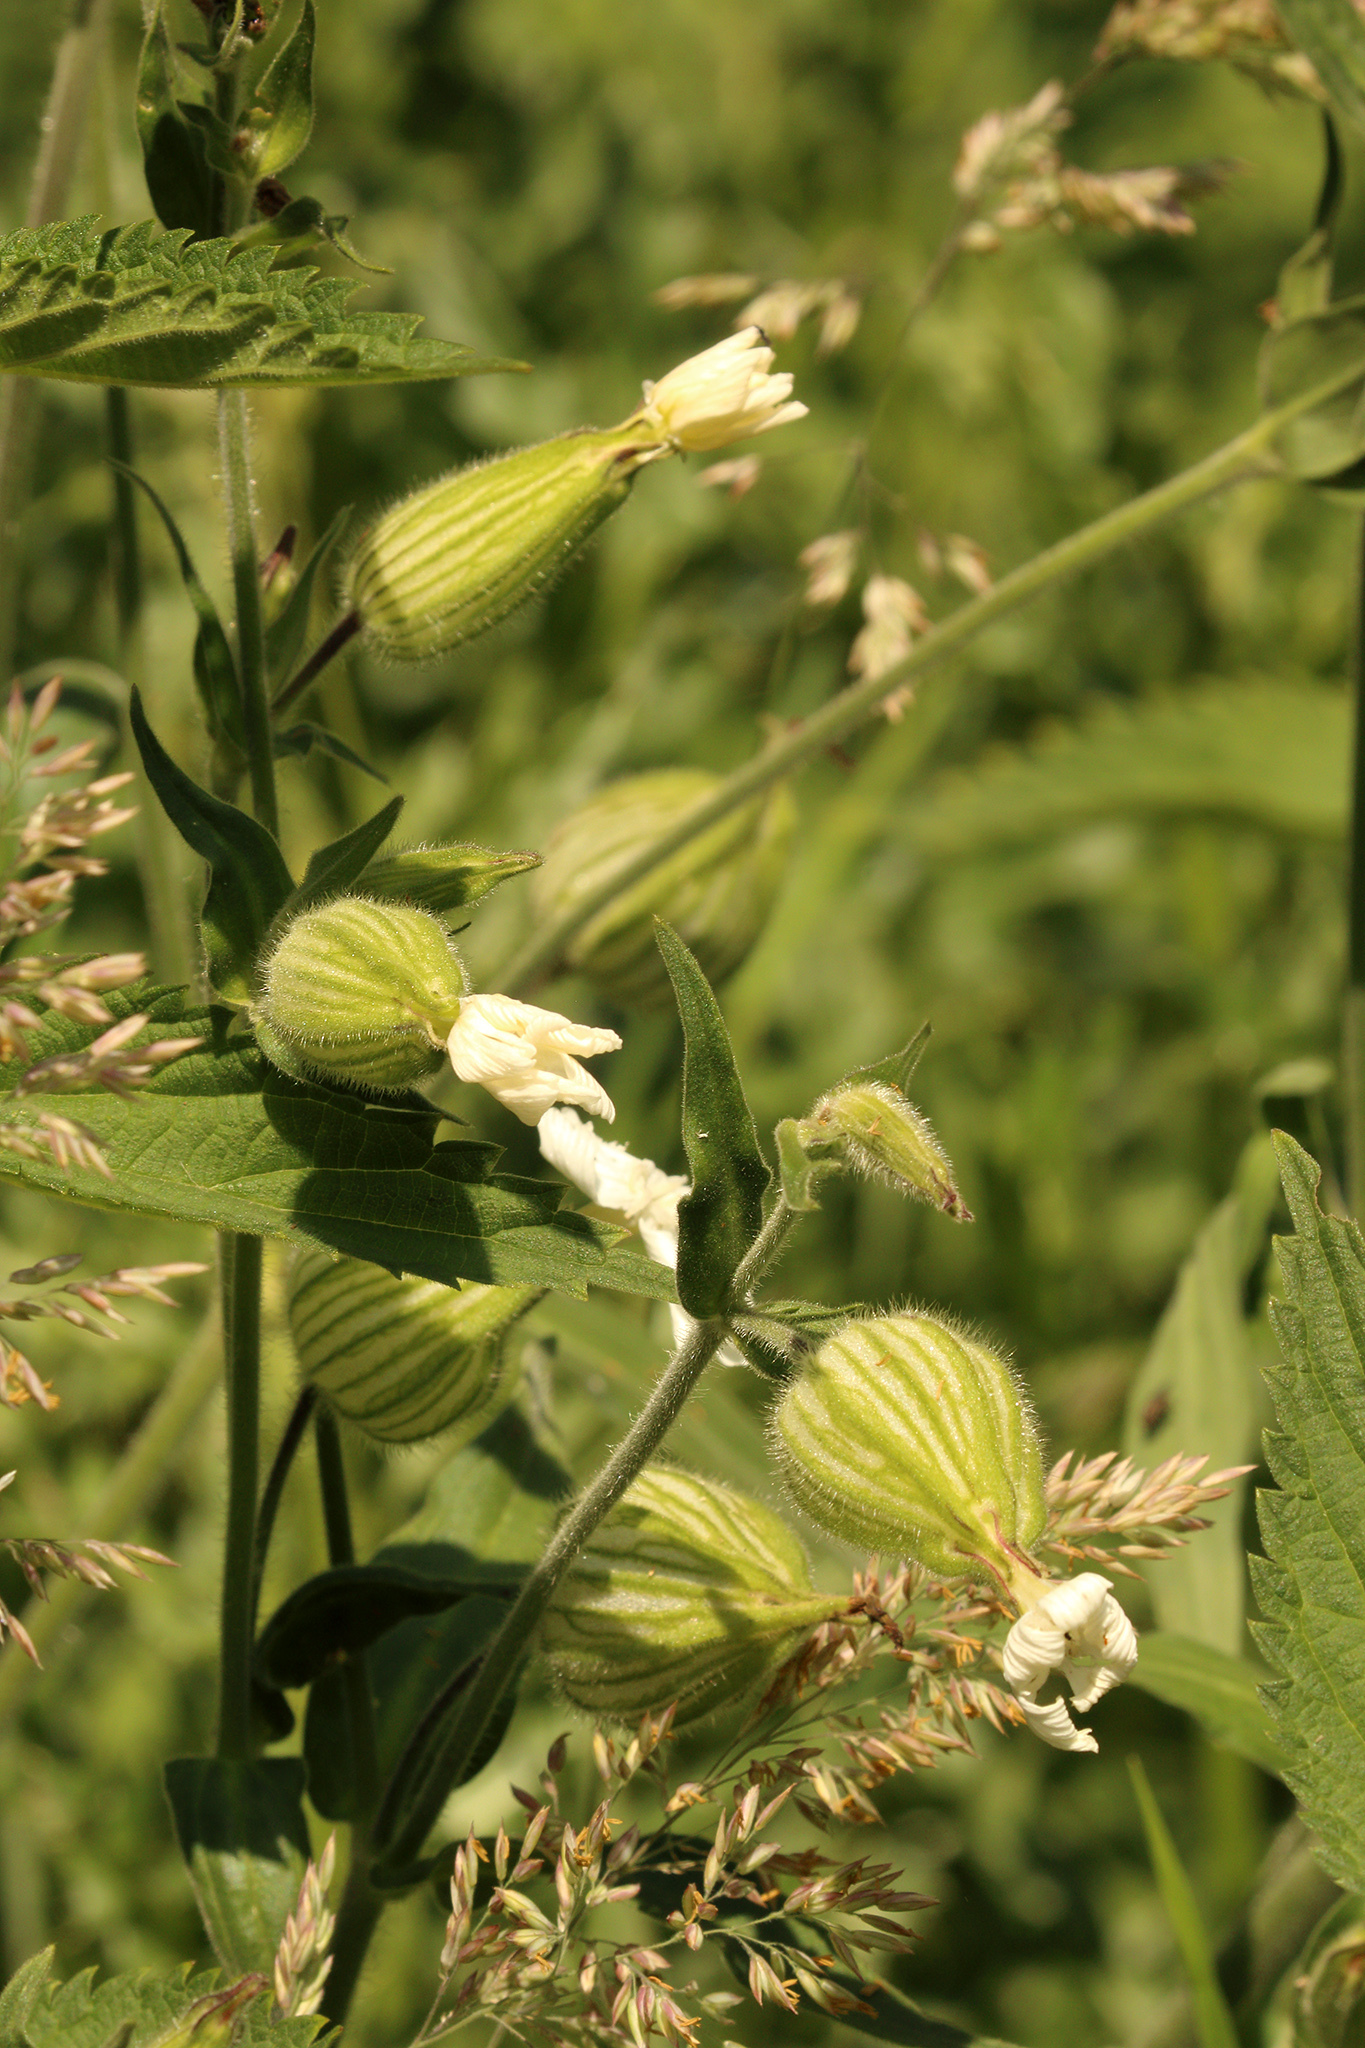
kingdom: Plantae
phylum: Tracheophyta
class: Magnoliopsida
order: Caryophyllales
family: Caryophyllaceae
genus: Silene
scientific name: Silene latifolia
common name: White campion
